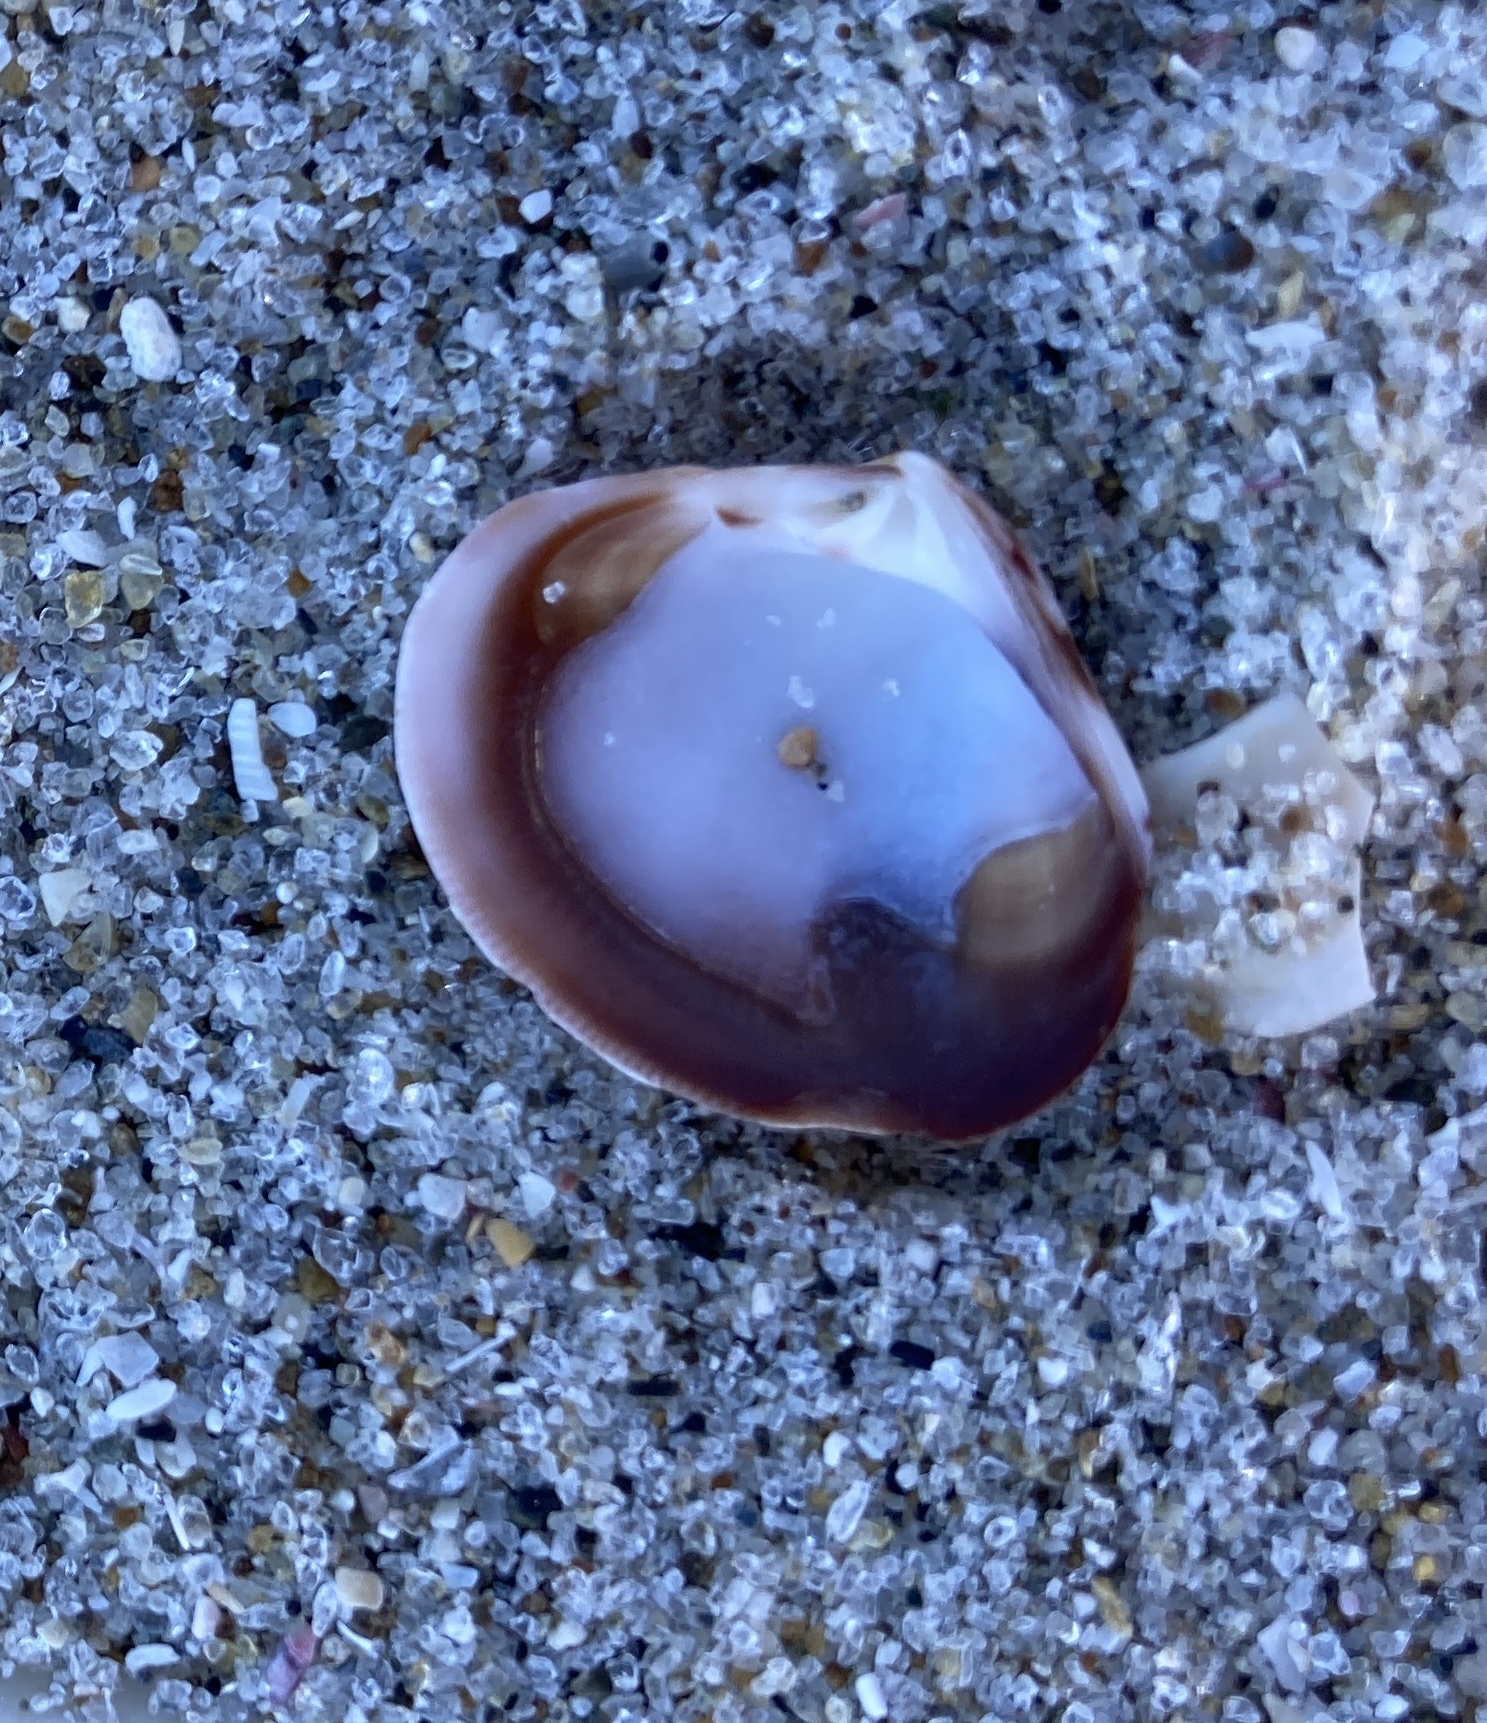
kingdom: Animalia
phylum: Mollusca
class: Bivalvia
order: Venerida
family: Veneridae
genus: Tawera
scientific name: Tawera spissa
